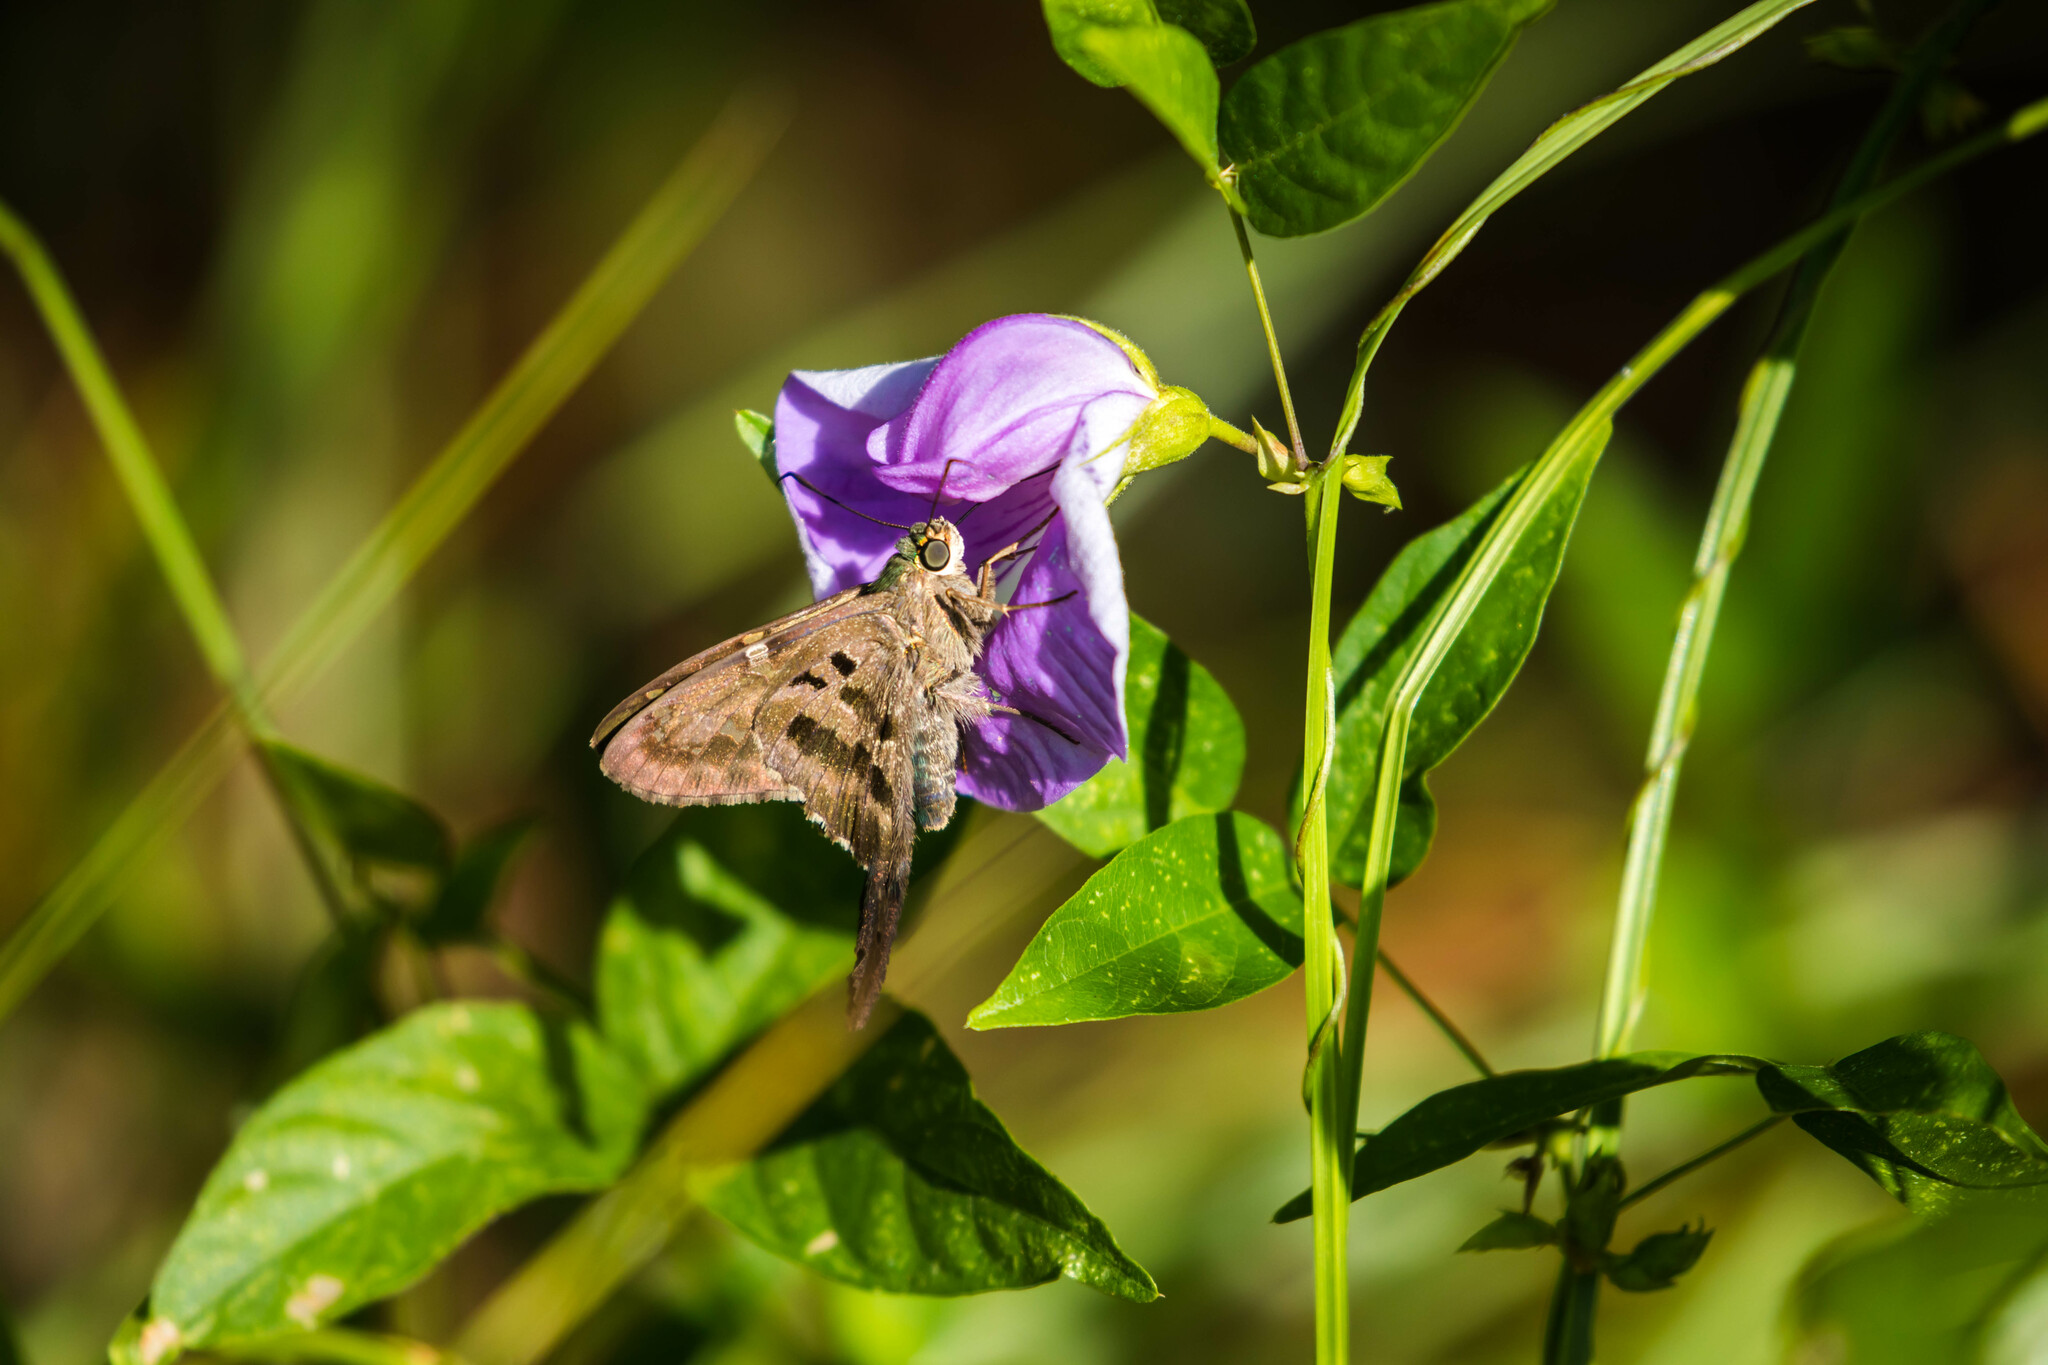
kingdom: Animalia
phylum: Arthropoda
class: Insecta
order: Lepidoptera
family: Hesperiidae
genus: Urbanus
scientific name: Urbanus proteus
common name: Long-tailed skipper
